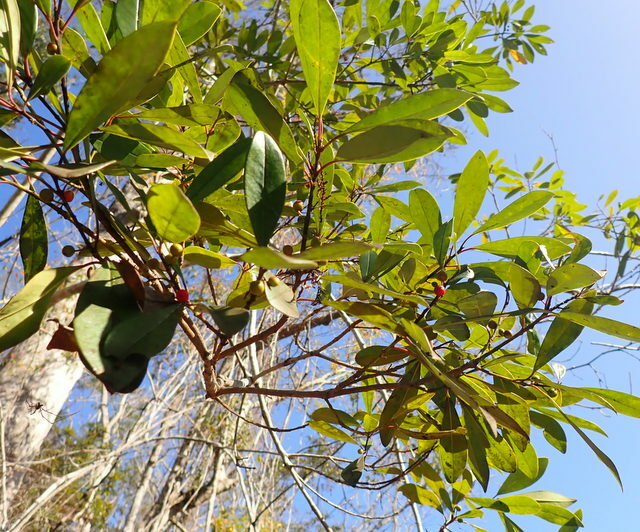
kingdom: Plantae
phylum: Tracheophyta
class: Magnoliopsida
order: Aquifoliales
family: Aquifoliaceae
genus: Ilex
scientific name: Ilex cassine
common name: Dahoon
